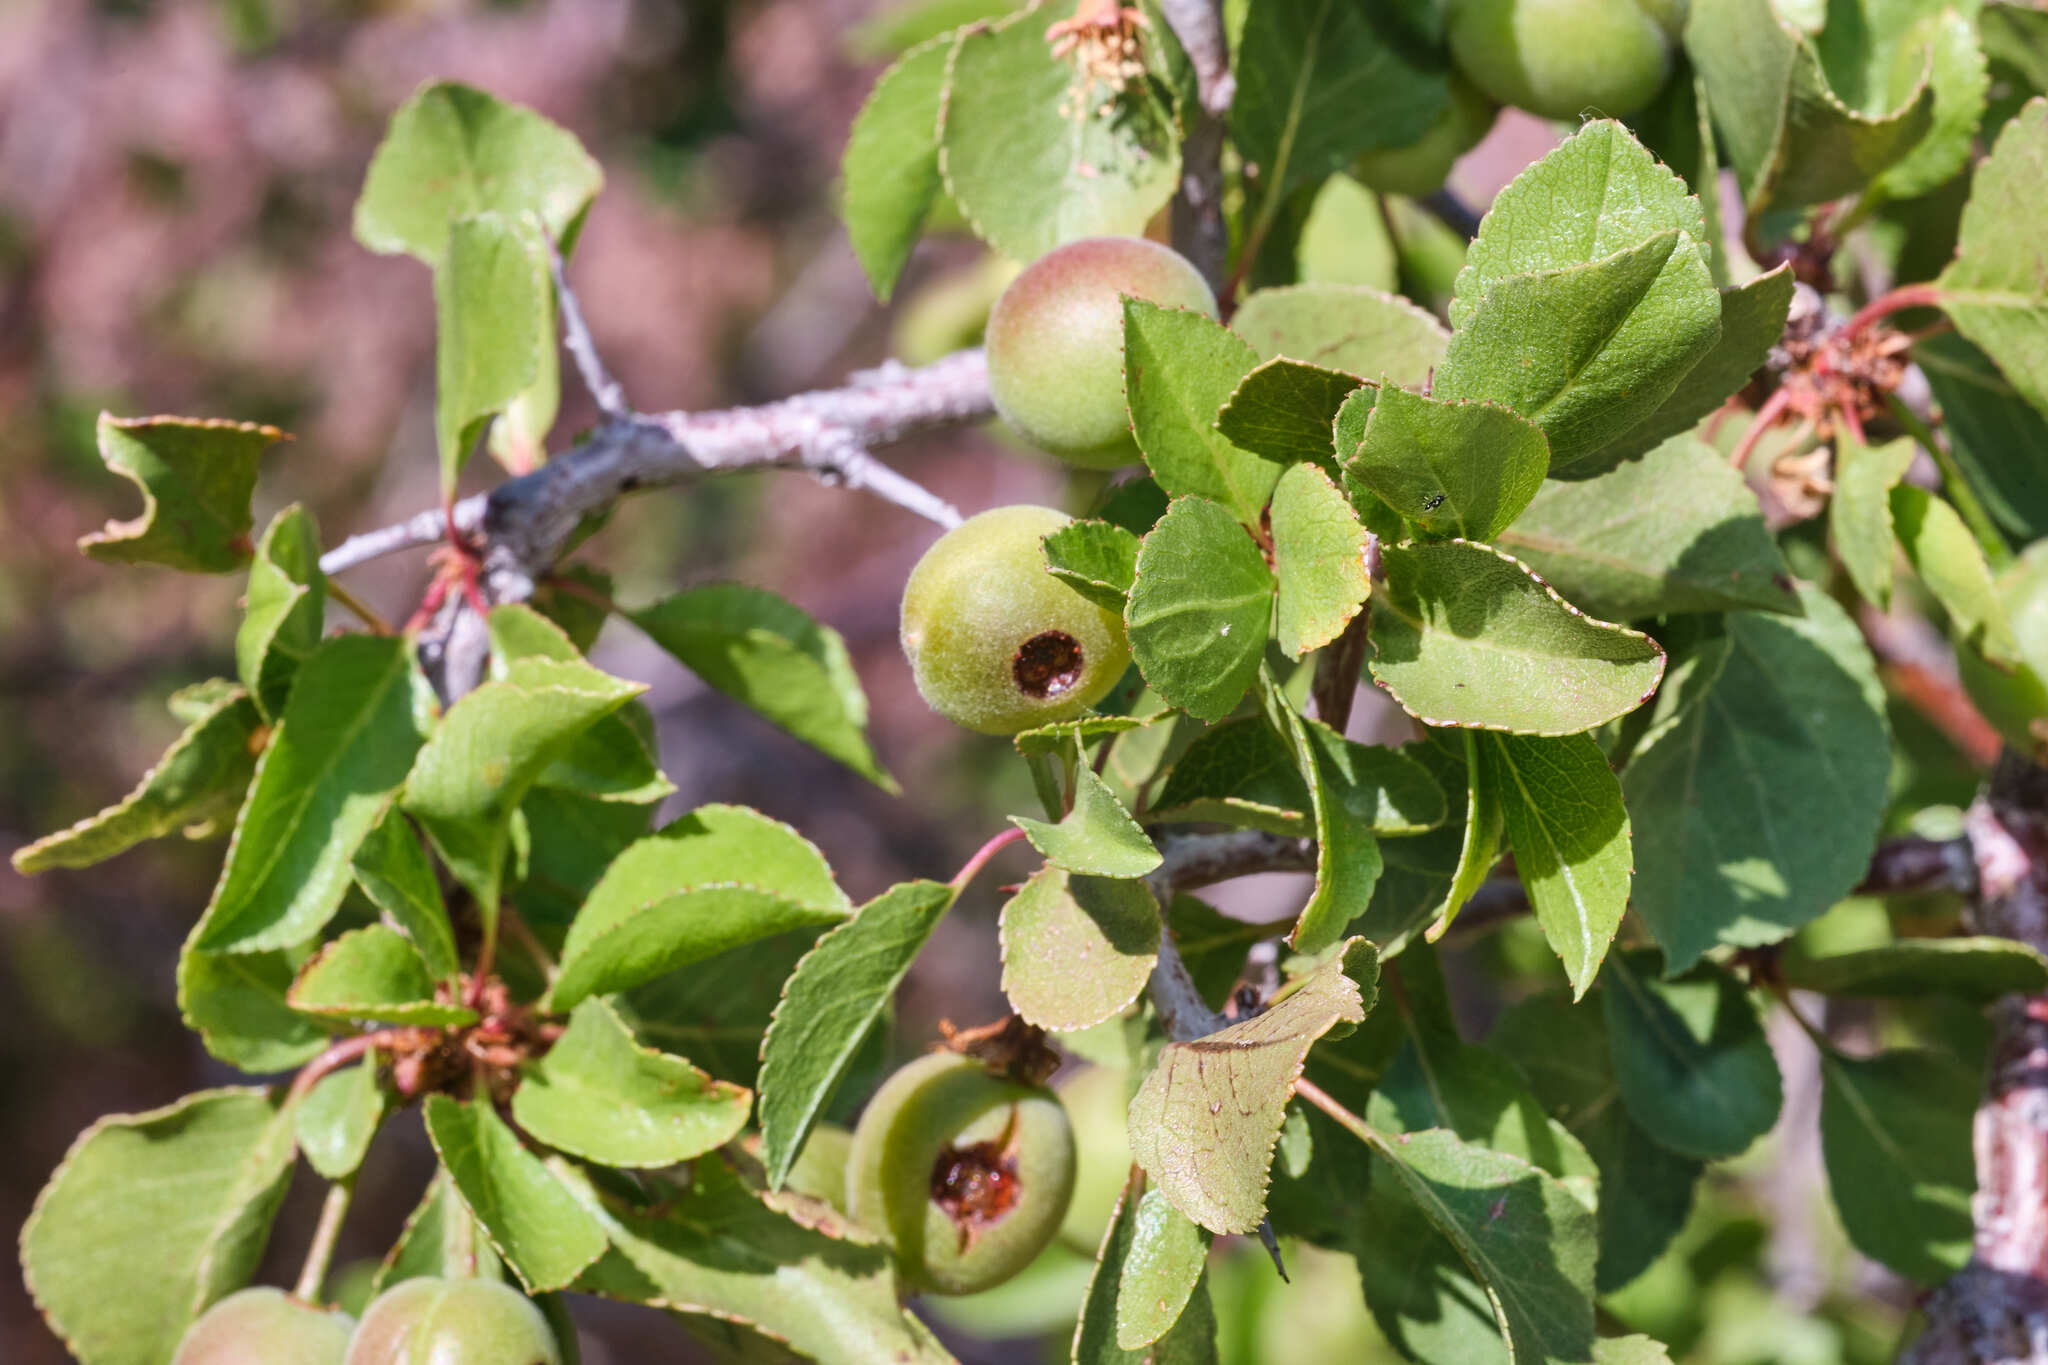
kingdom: Plantae
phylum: Tracheophyta
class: Magnoliopsida
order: Rosales
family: Rosaceae
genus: Prunus
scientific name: Prunus fremontii
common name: Desert apricot
